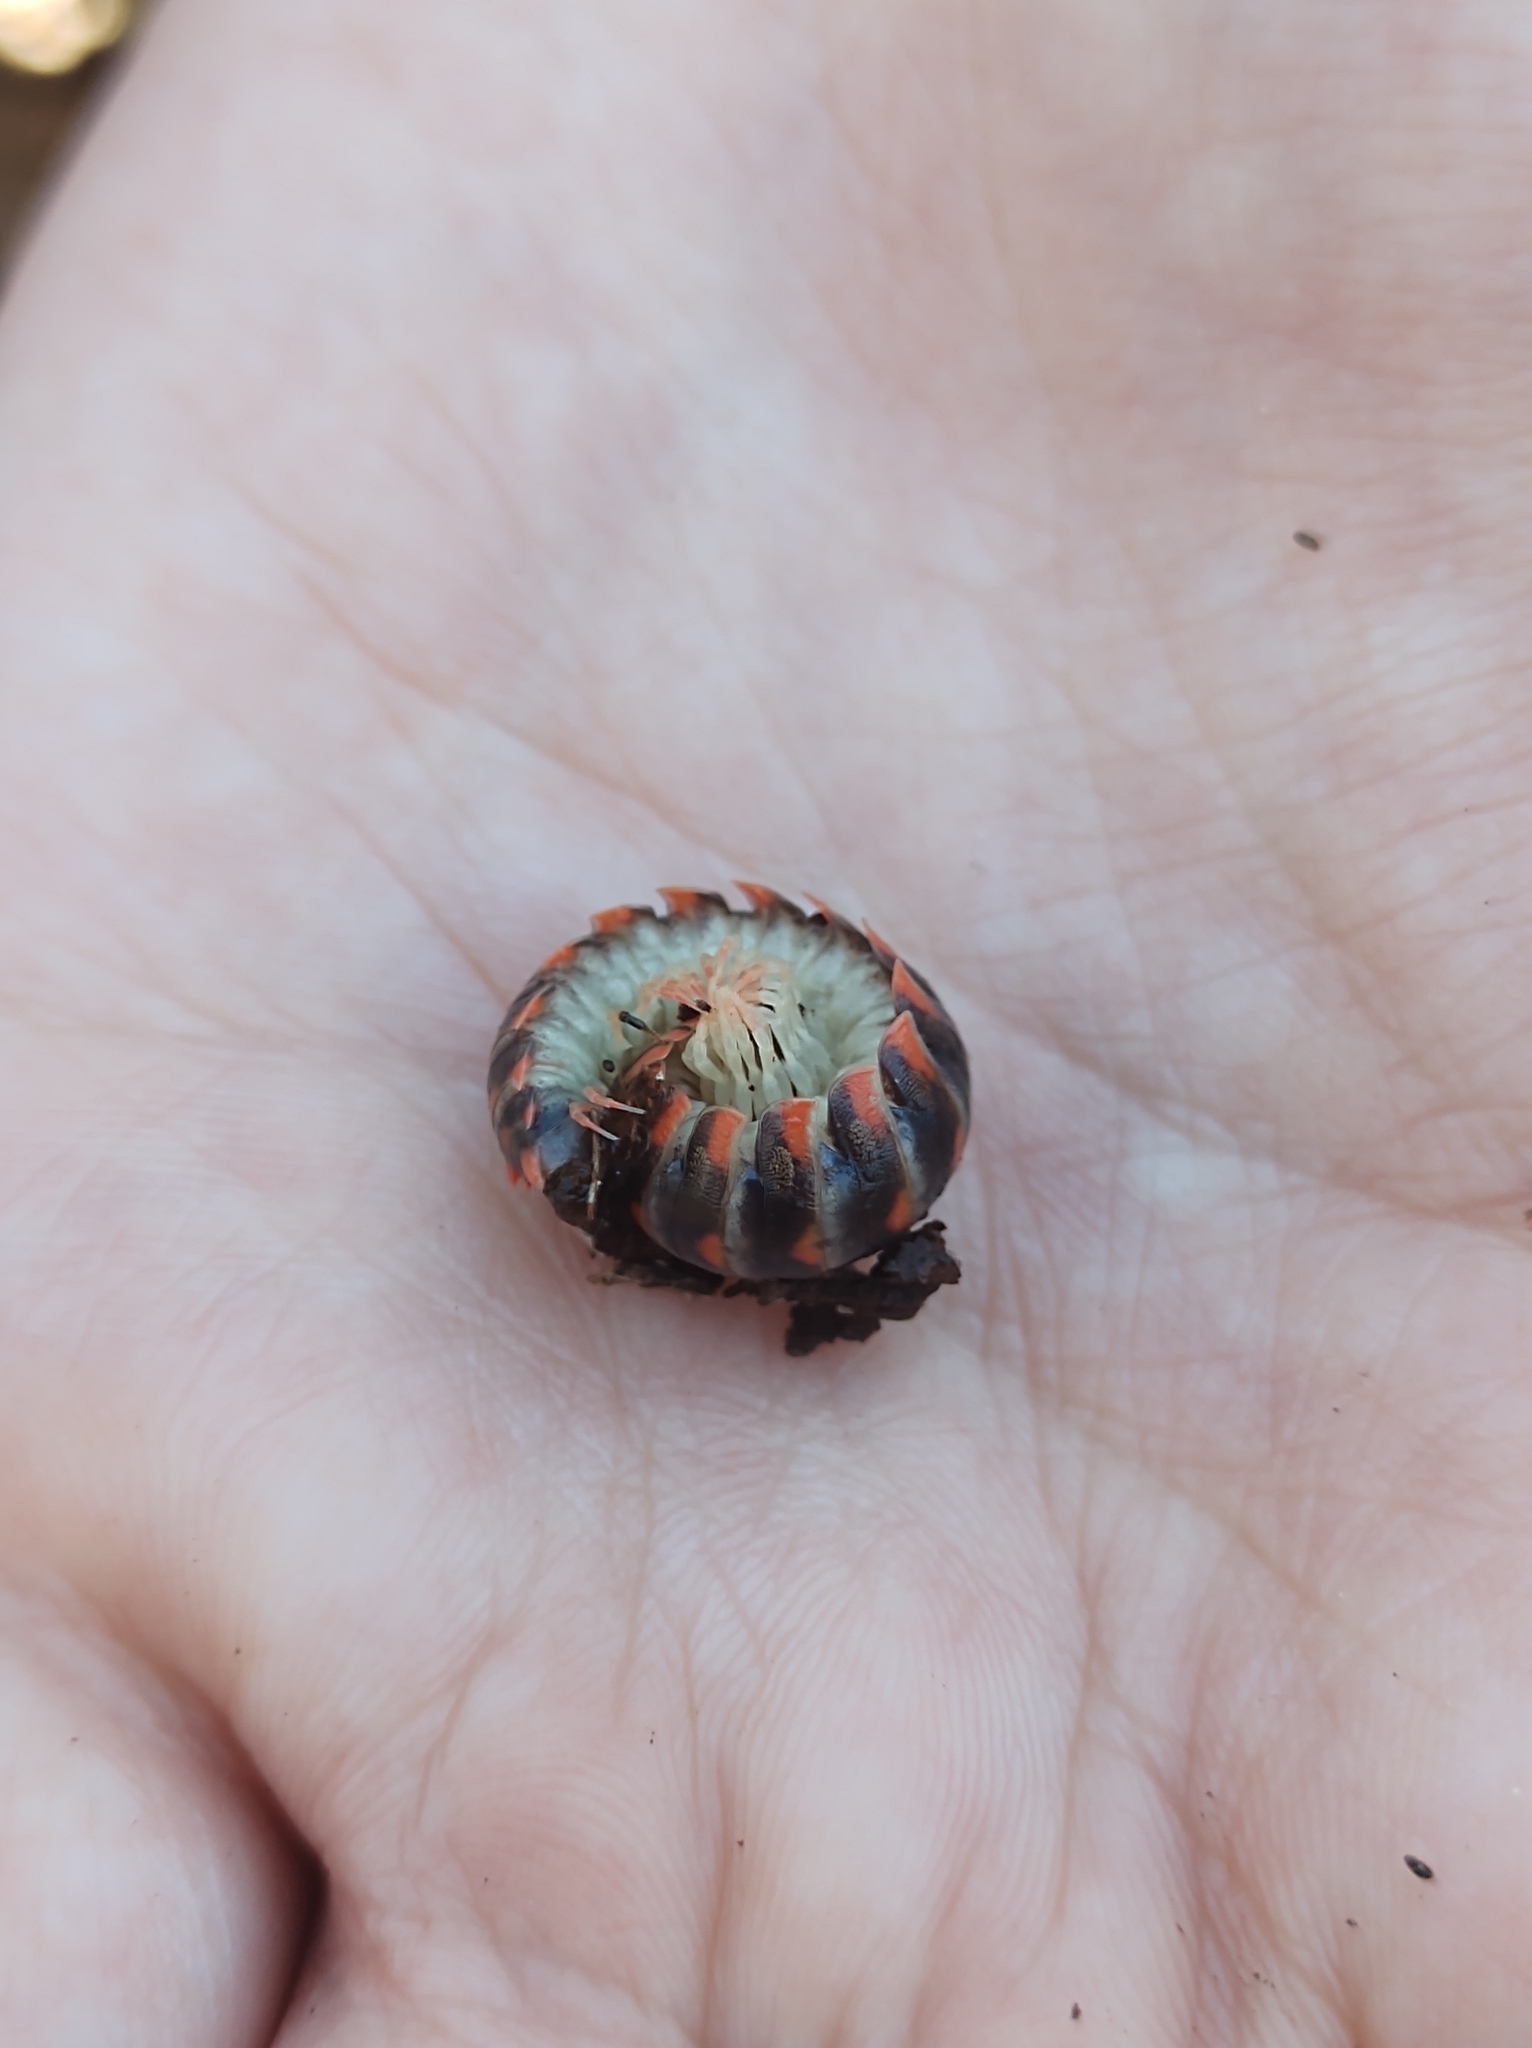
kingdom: Animalia
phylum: Arthropoda
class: Diplopoda
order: Polydesmida
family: Xystodesmidae
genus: Cherokia
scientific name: Cherokia georgiana
